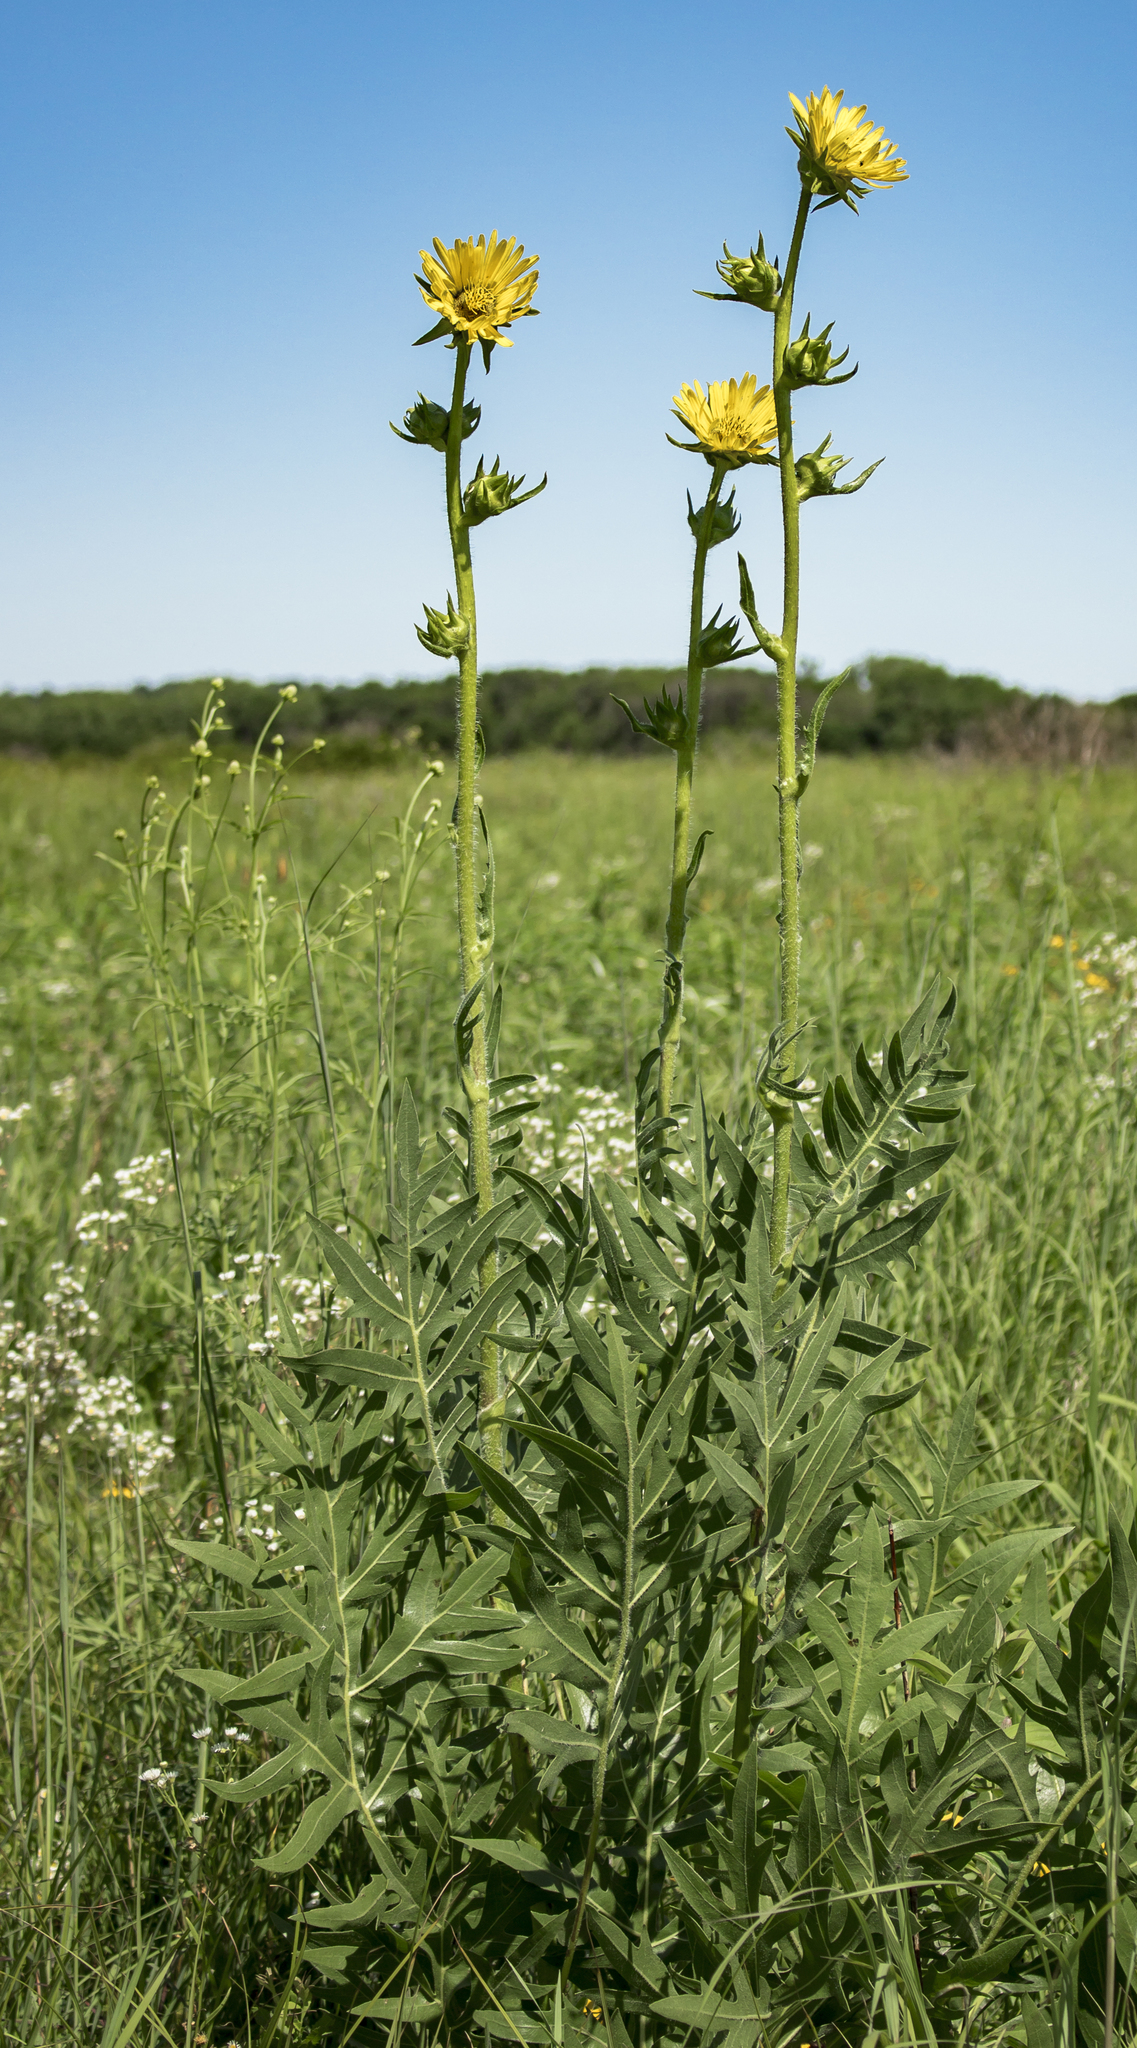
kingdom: Plantae
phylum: Tracheophyta
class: Magnoliopsida
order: Asterales
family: Asteraceae
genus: Silphium
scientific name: Silphium laciniatum
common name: Polarplant
